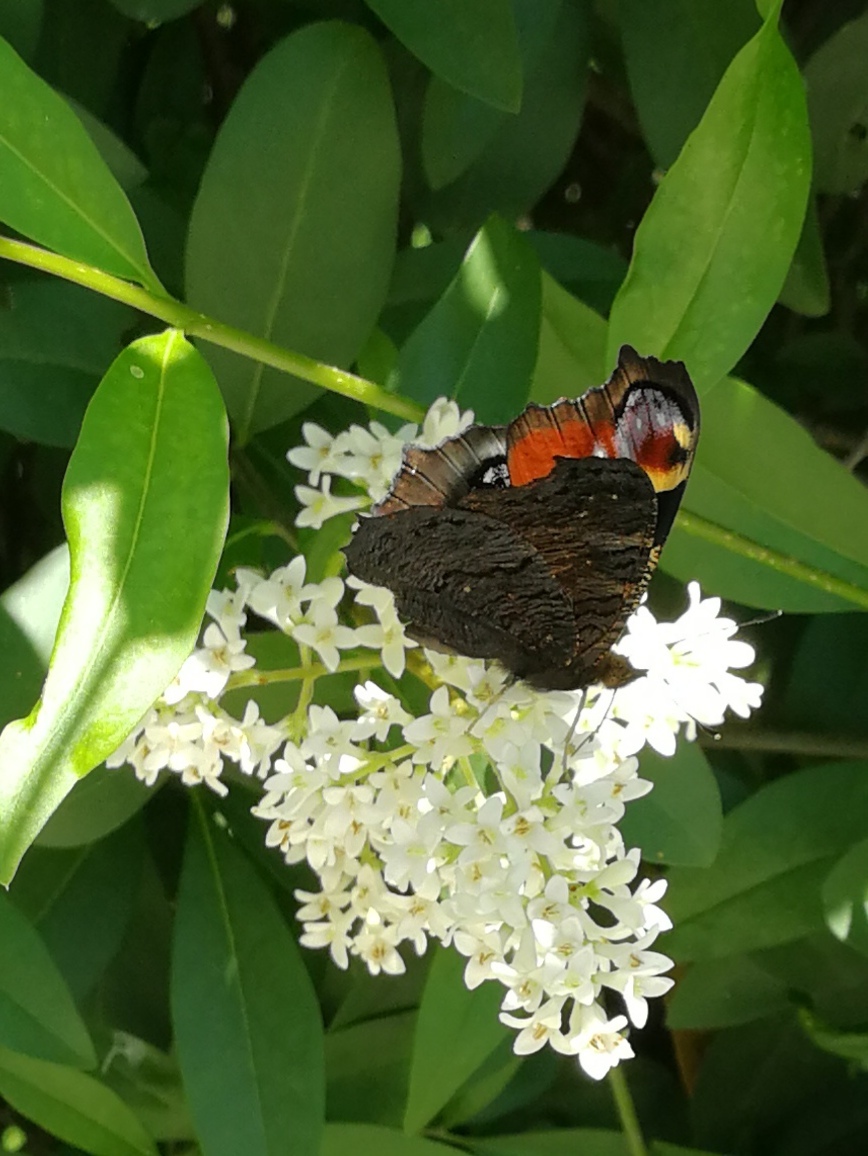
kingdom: Animalia
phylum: Arthropoda
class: Insecta
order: Lepidoptera
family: Nymphalidae
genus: Aglais
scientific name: Aglais io
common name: Peacock
